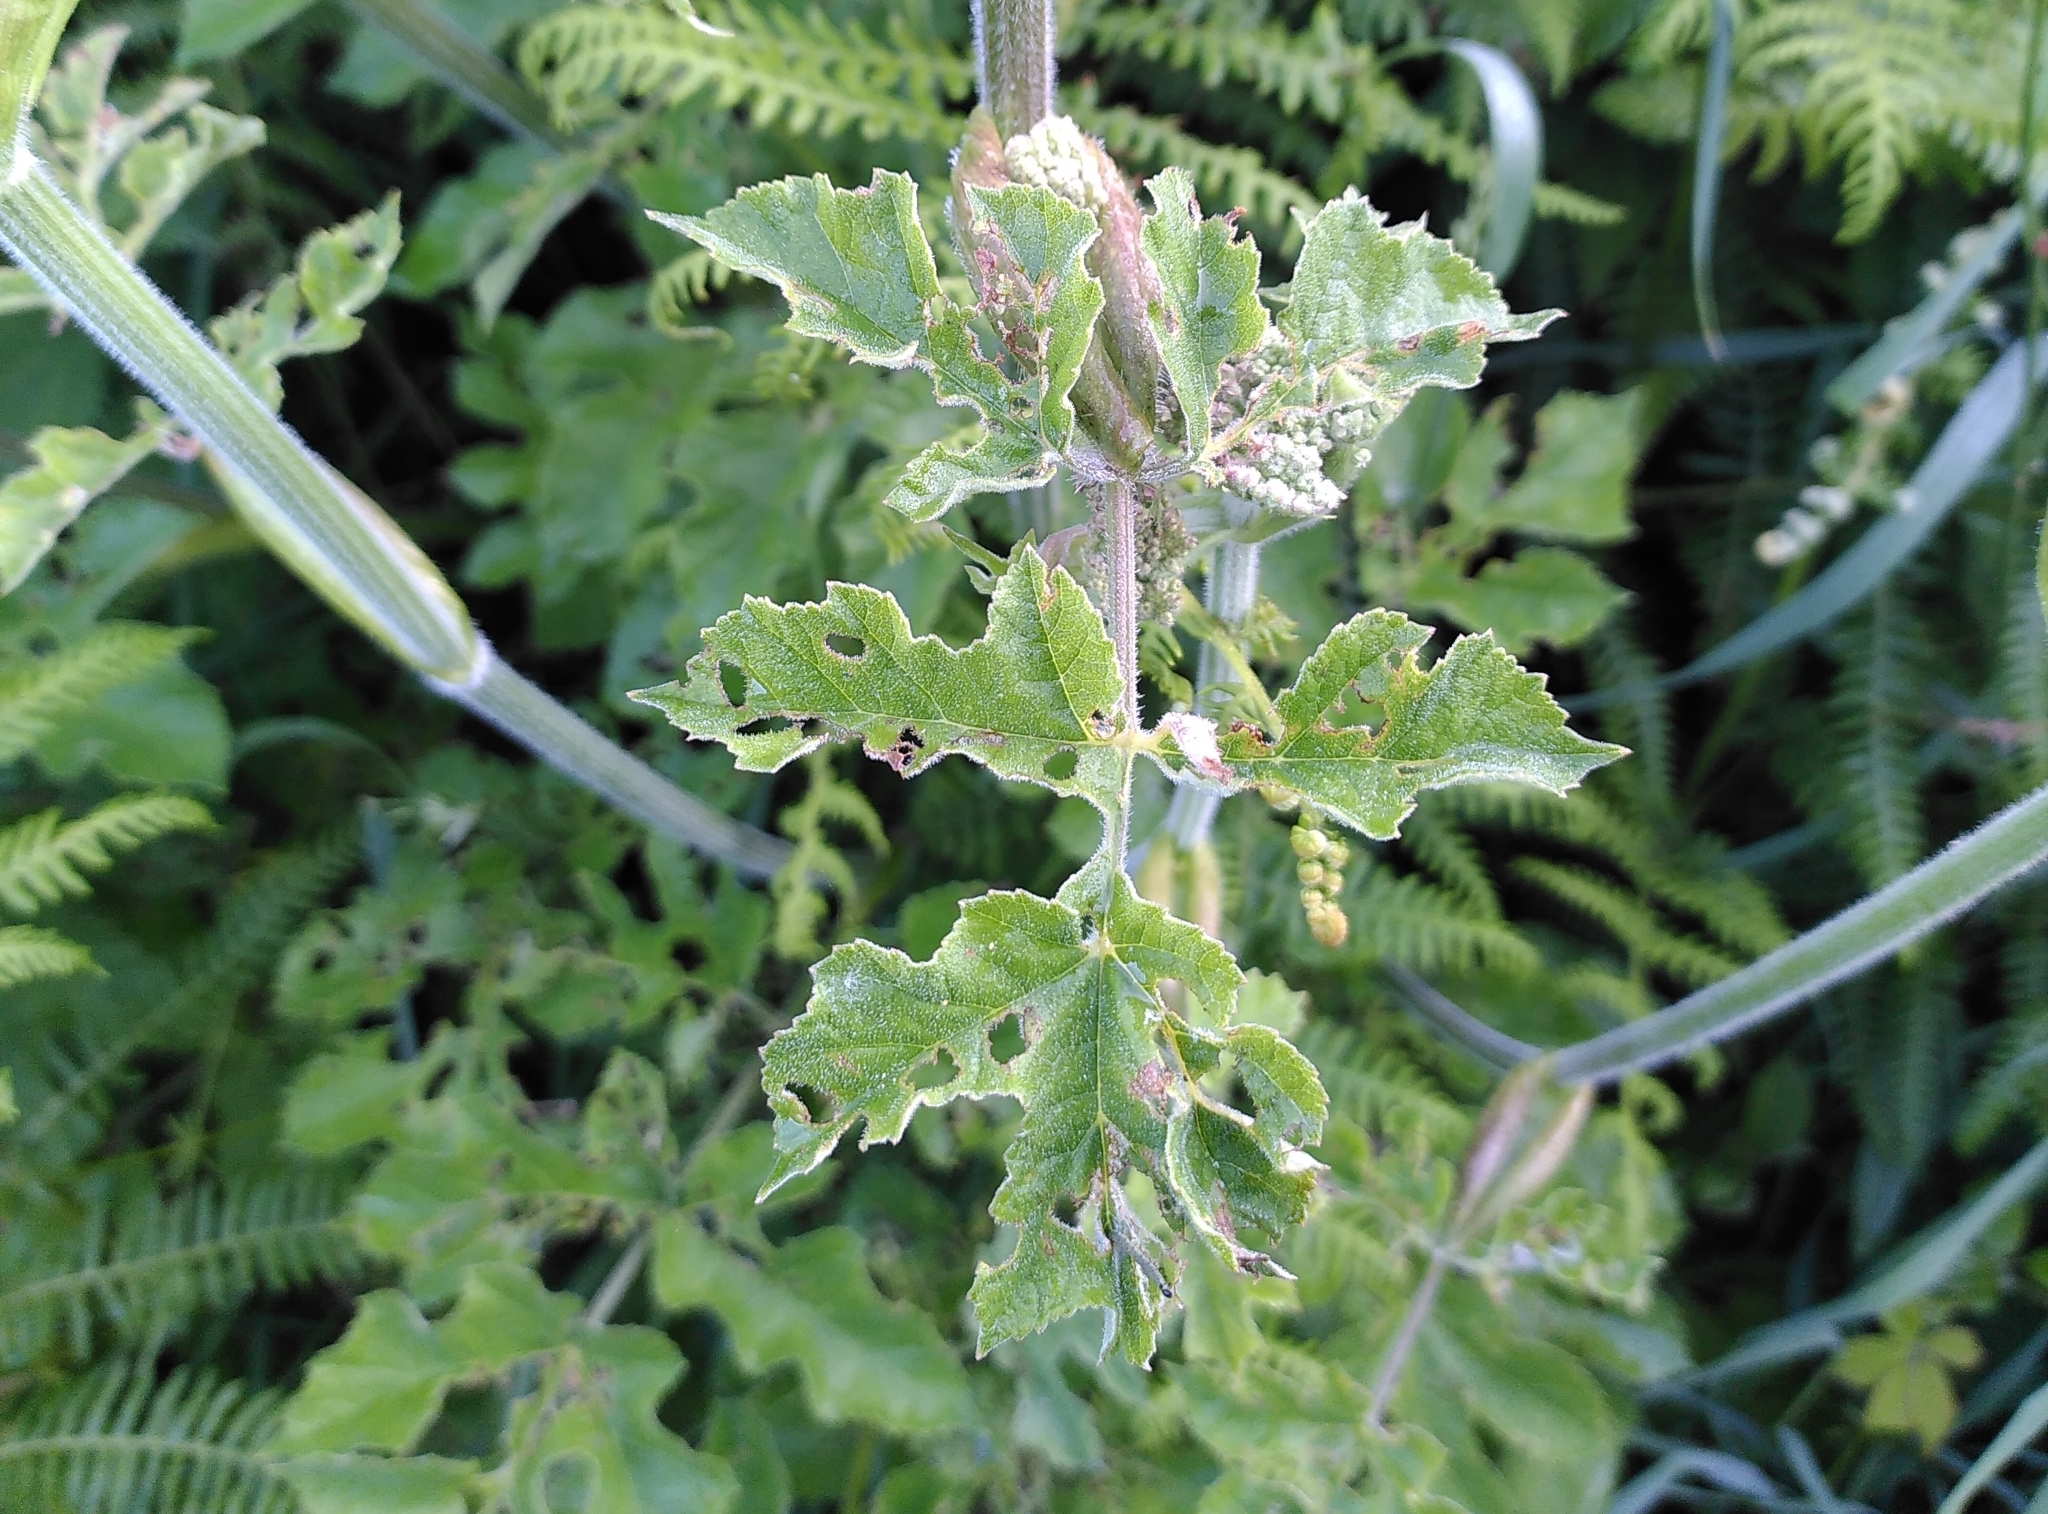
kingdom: Plantae
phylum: Tracheophyta
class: Magnoliopsida
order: Apiales
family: Apiaceae
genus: Heracleum
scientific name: Heracleum sphondylium
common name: Hogweed
